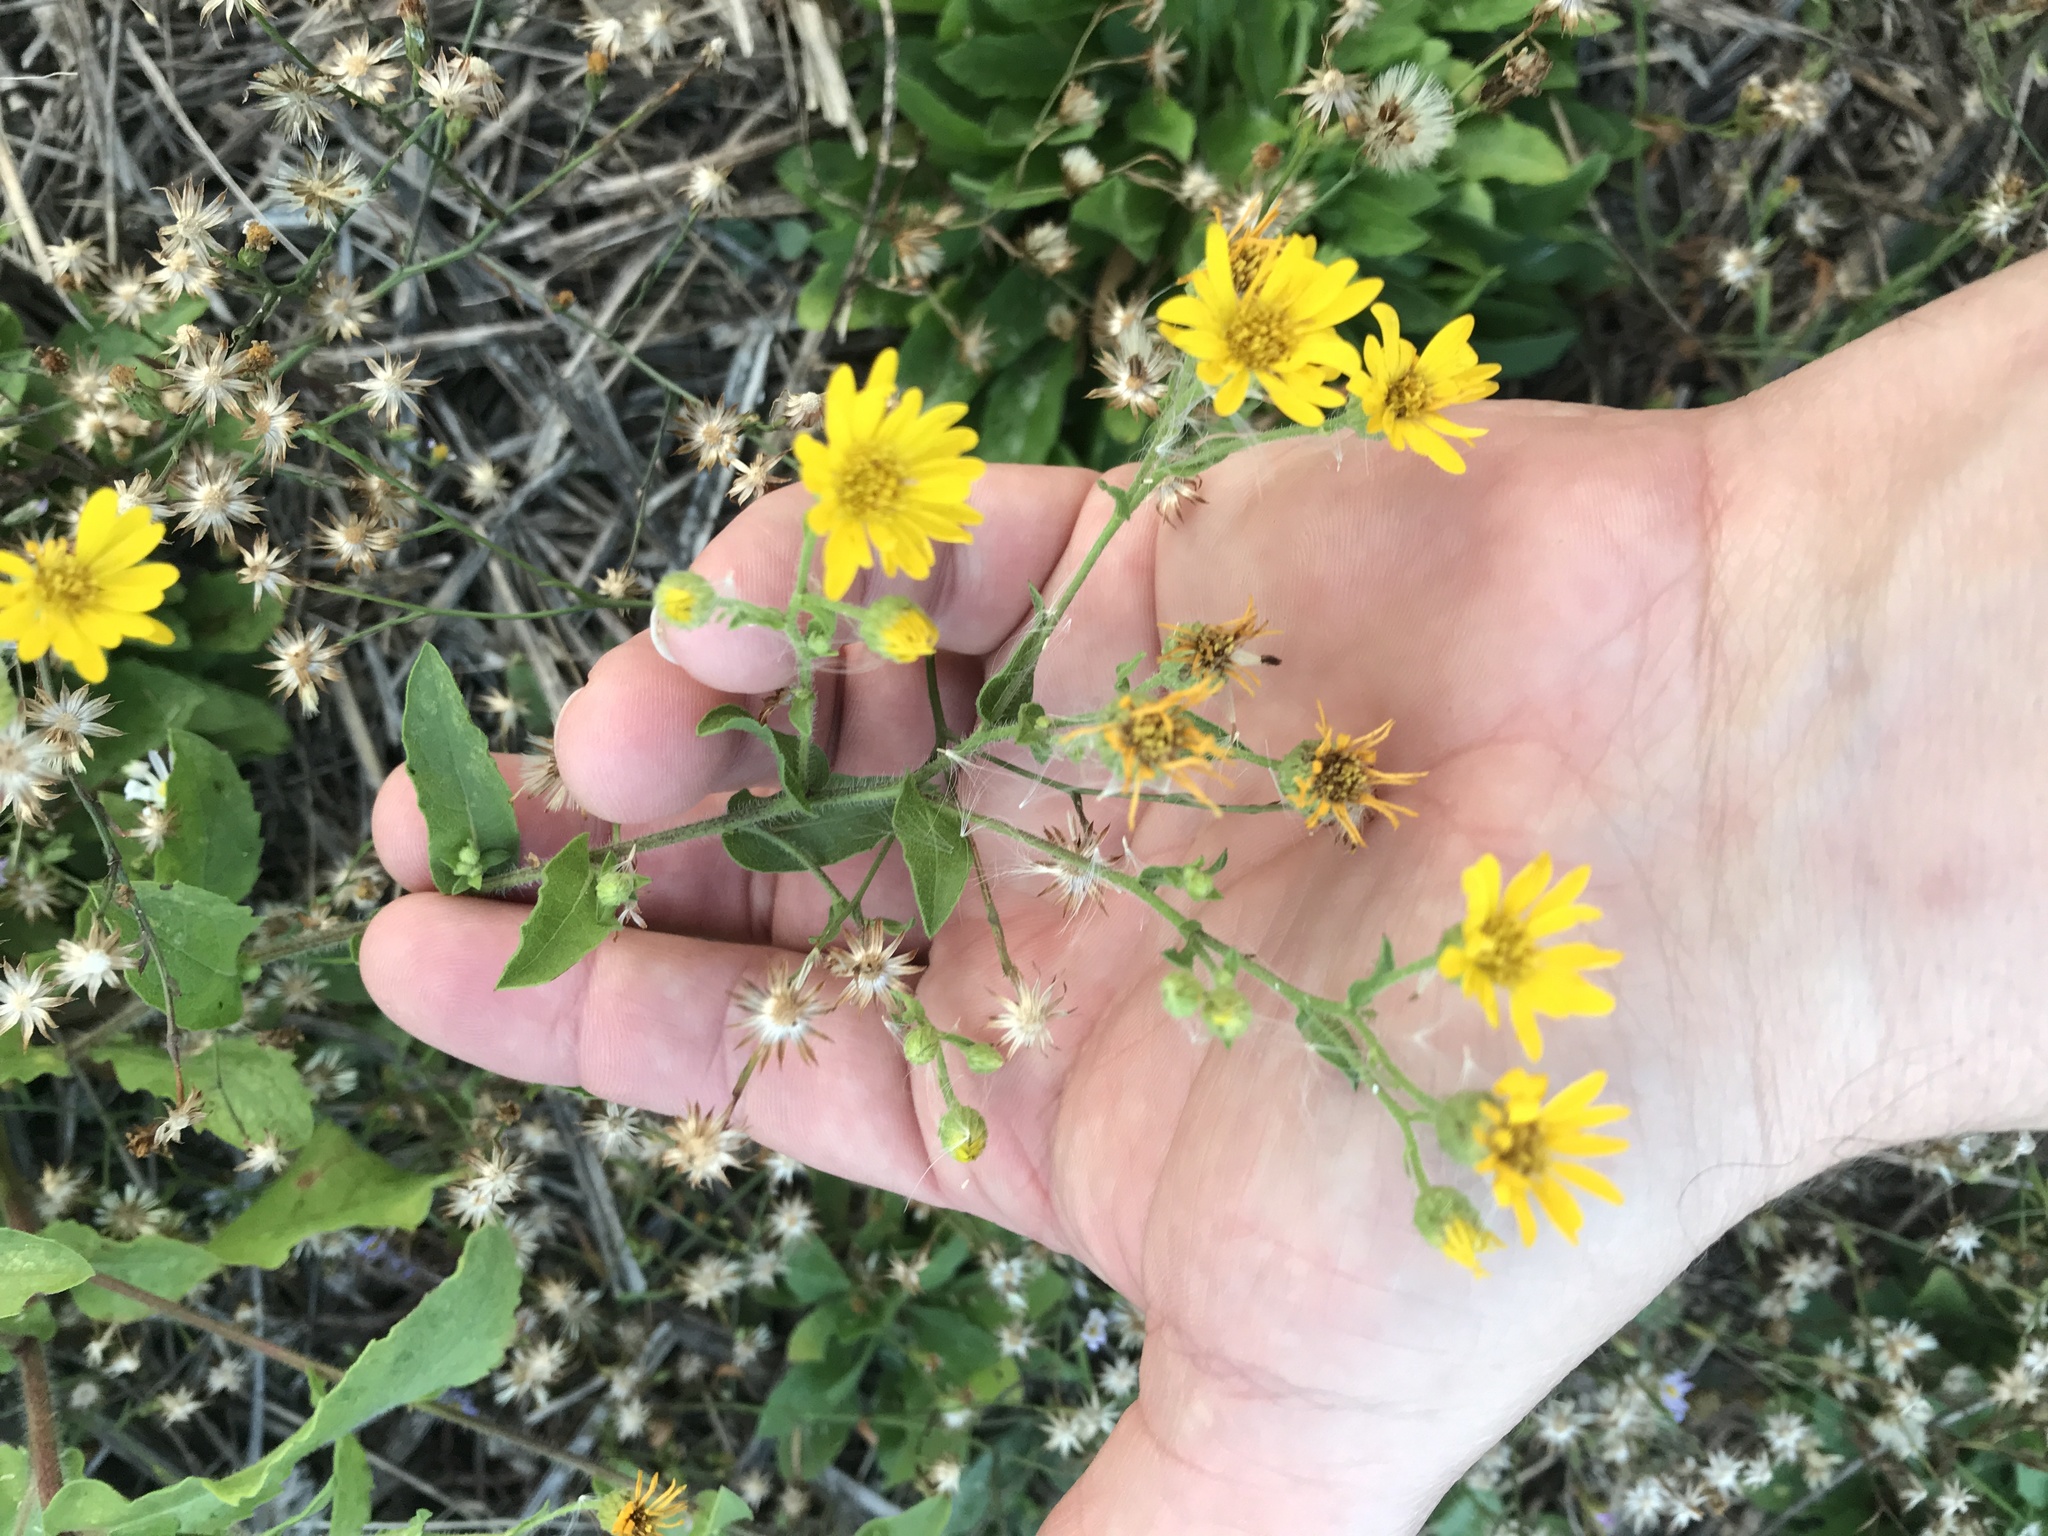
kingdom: Plantae
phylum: Tracheophyta
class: Magnoliopsida
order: Asterales
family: Asteraceae
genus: Heterotheca
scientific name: Heterotheca subaxillaris
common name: Camphorweed
